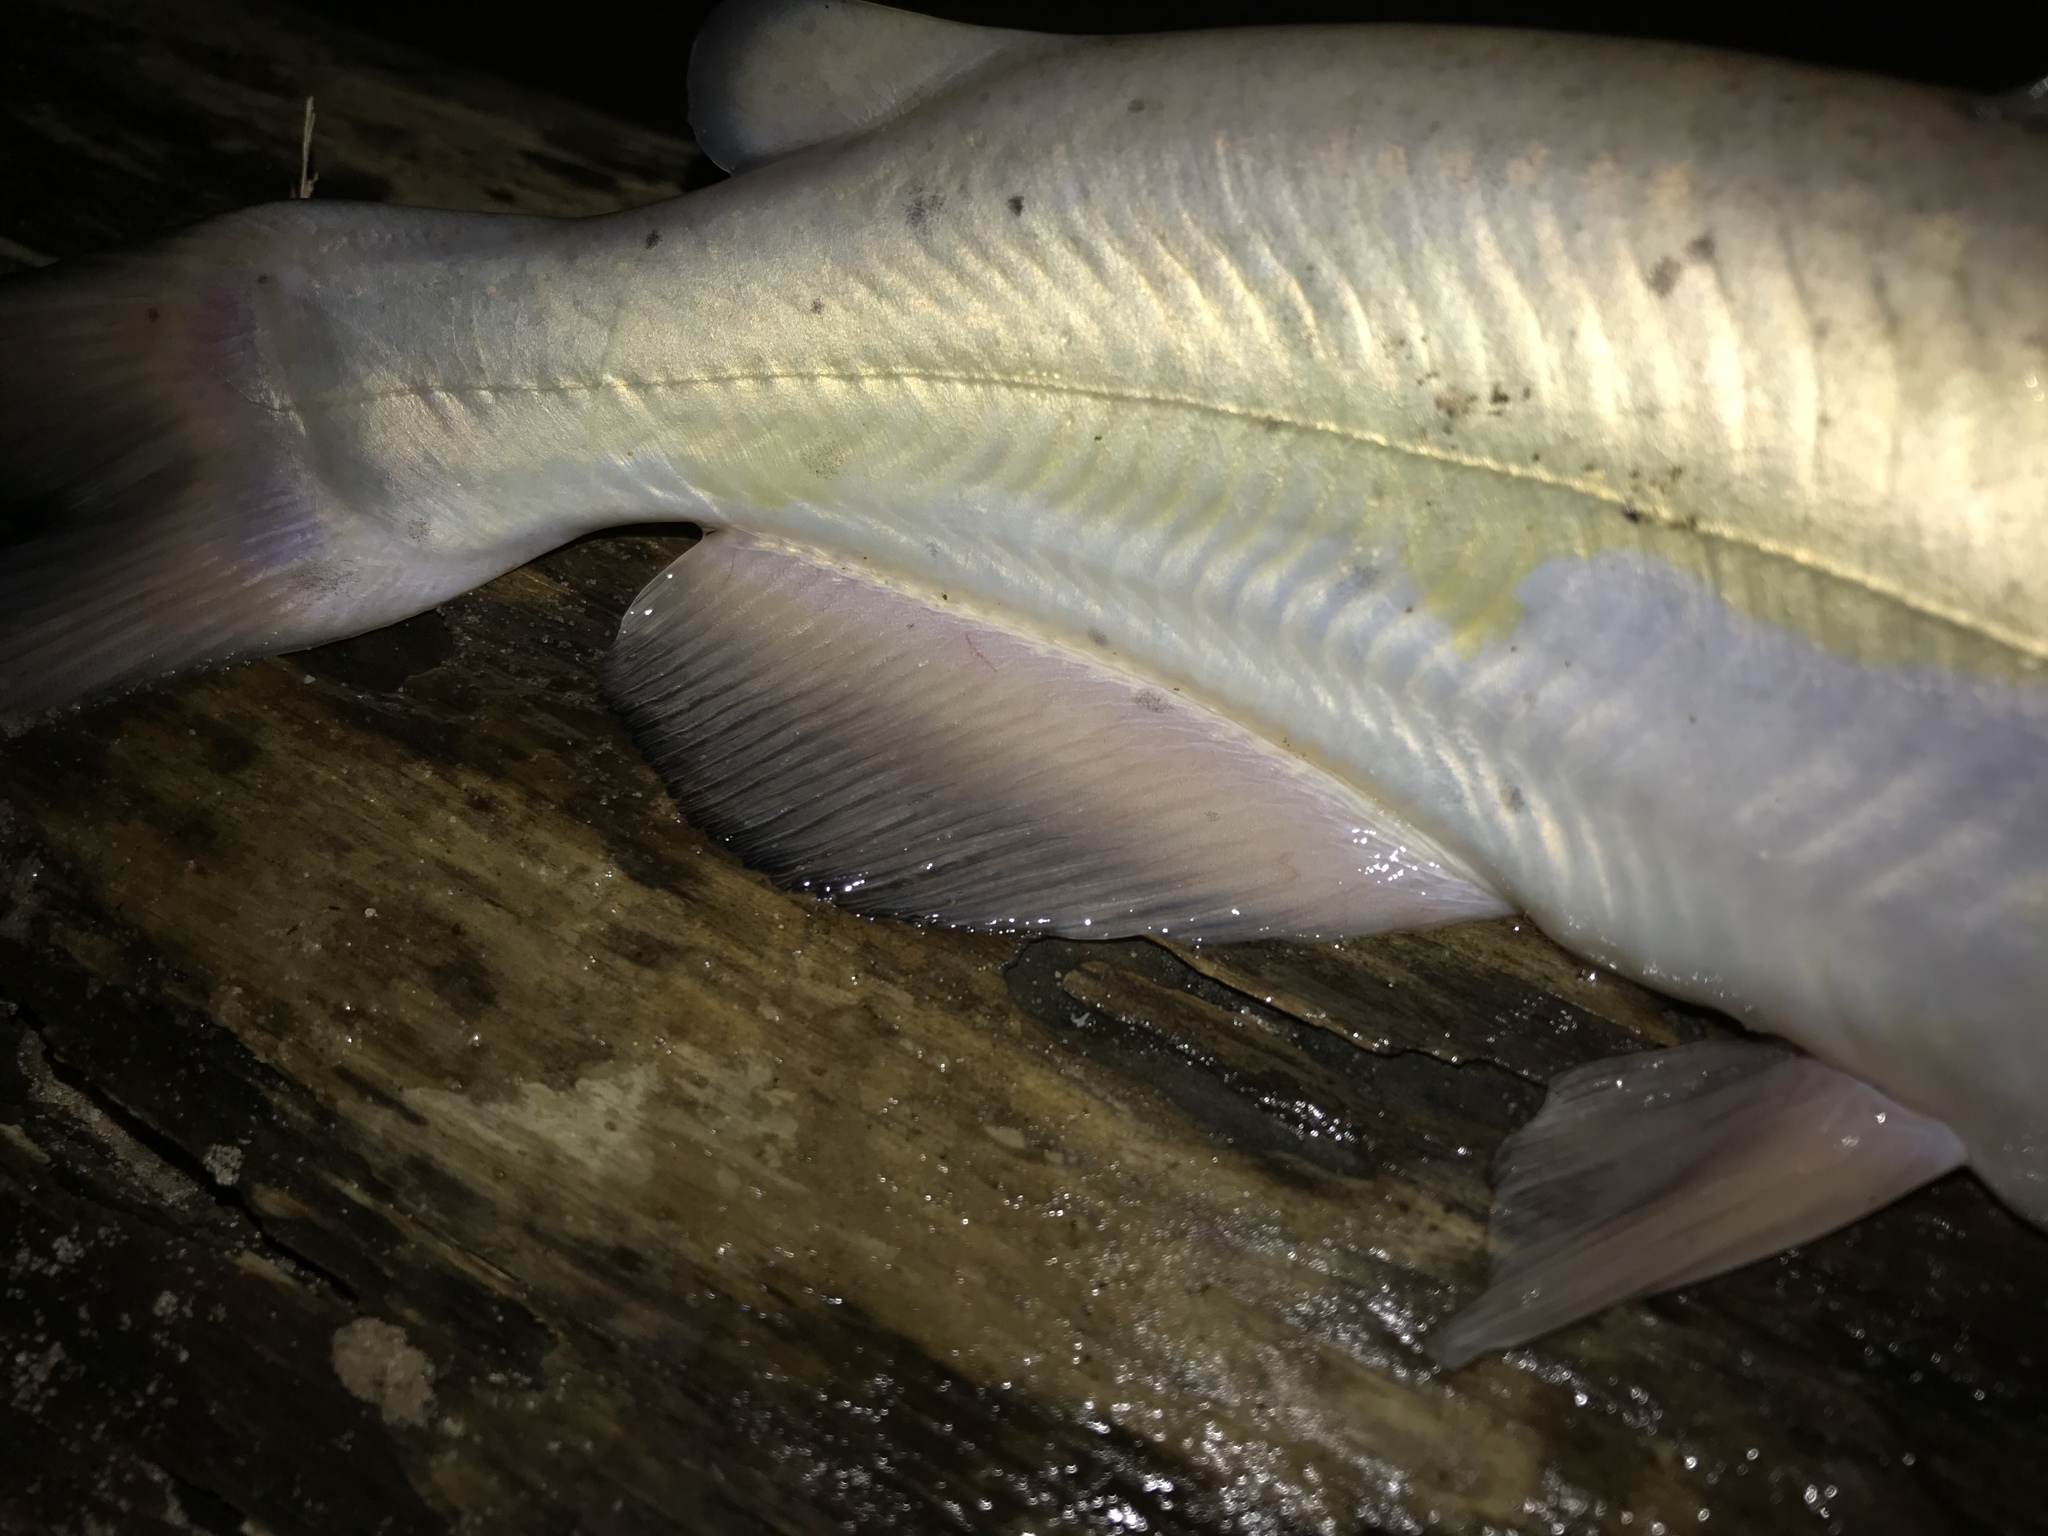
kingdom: Animalia
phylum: Chordata
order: Siluriformes
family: Ictaluridae
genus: Ictalurus
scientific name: Ictalurus punctatus
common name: Channel catfish
